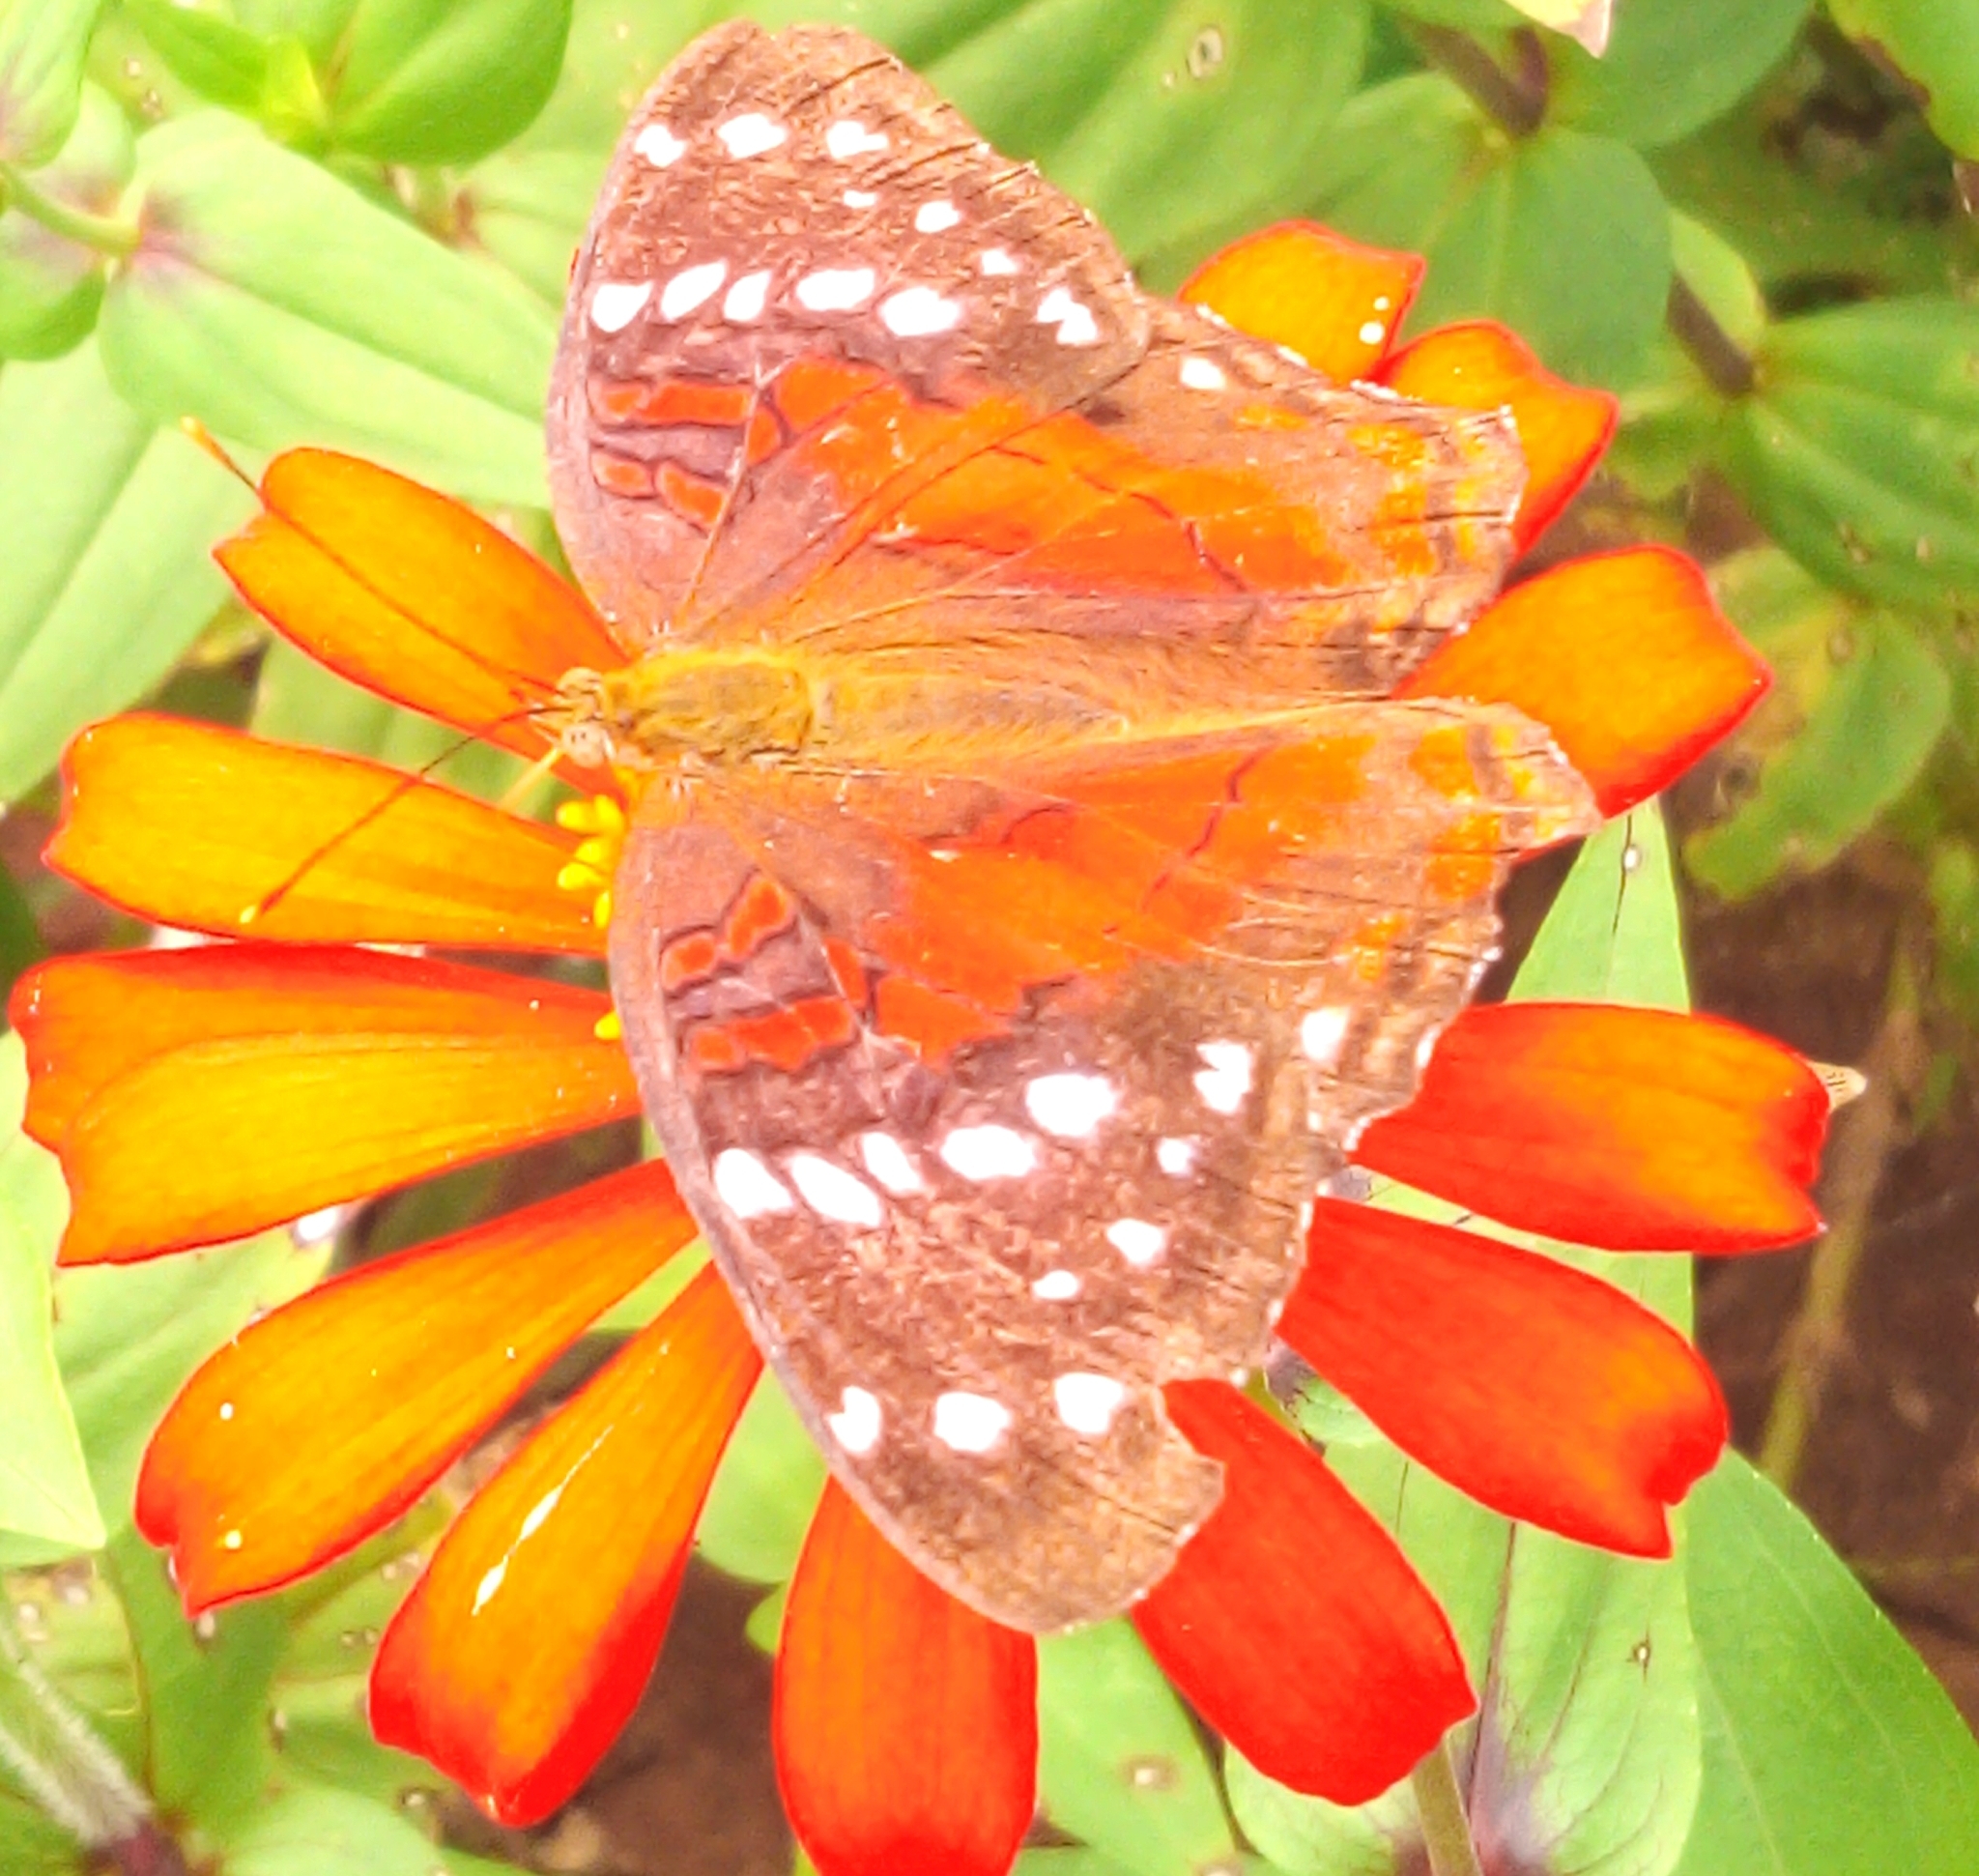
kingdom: Animalia
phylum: Arthropoda
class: Insecta
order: Lepidoptera
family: Nymphalidae
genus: Anartia
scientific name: Anartia amathea
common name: Red peacock
